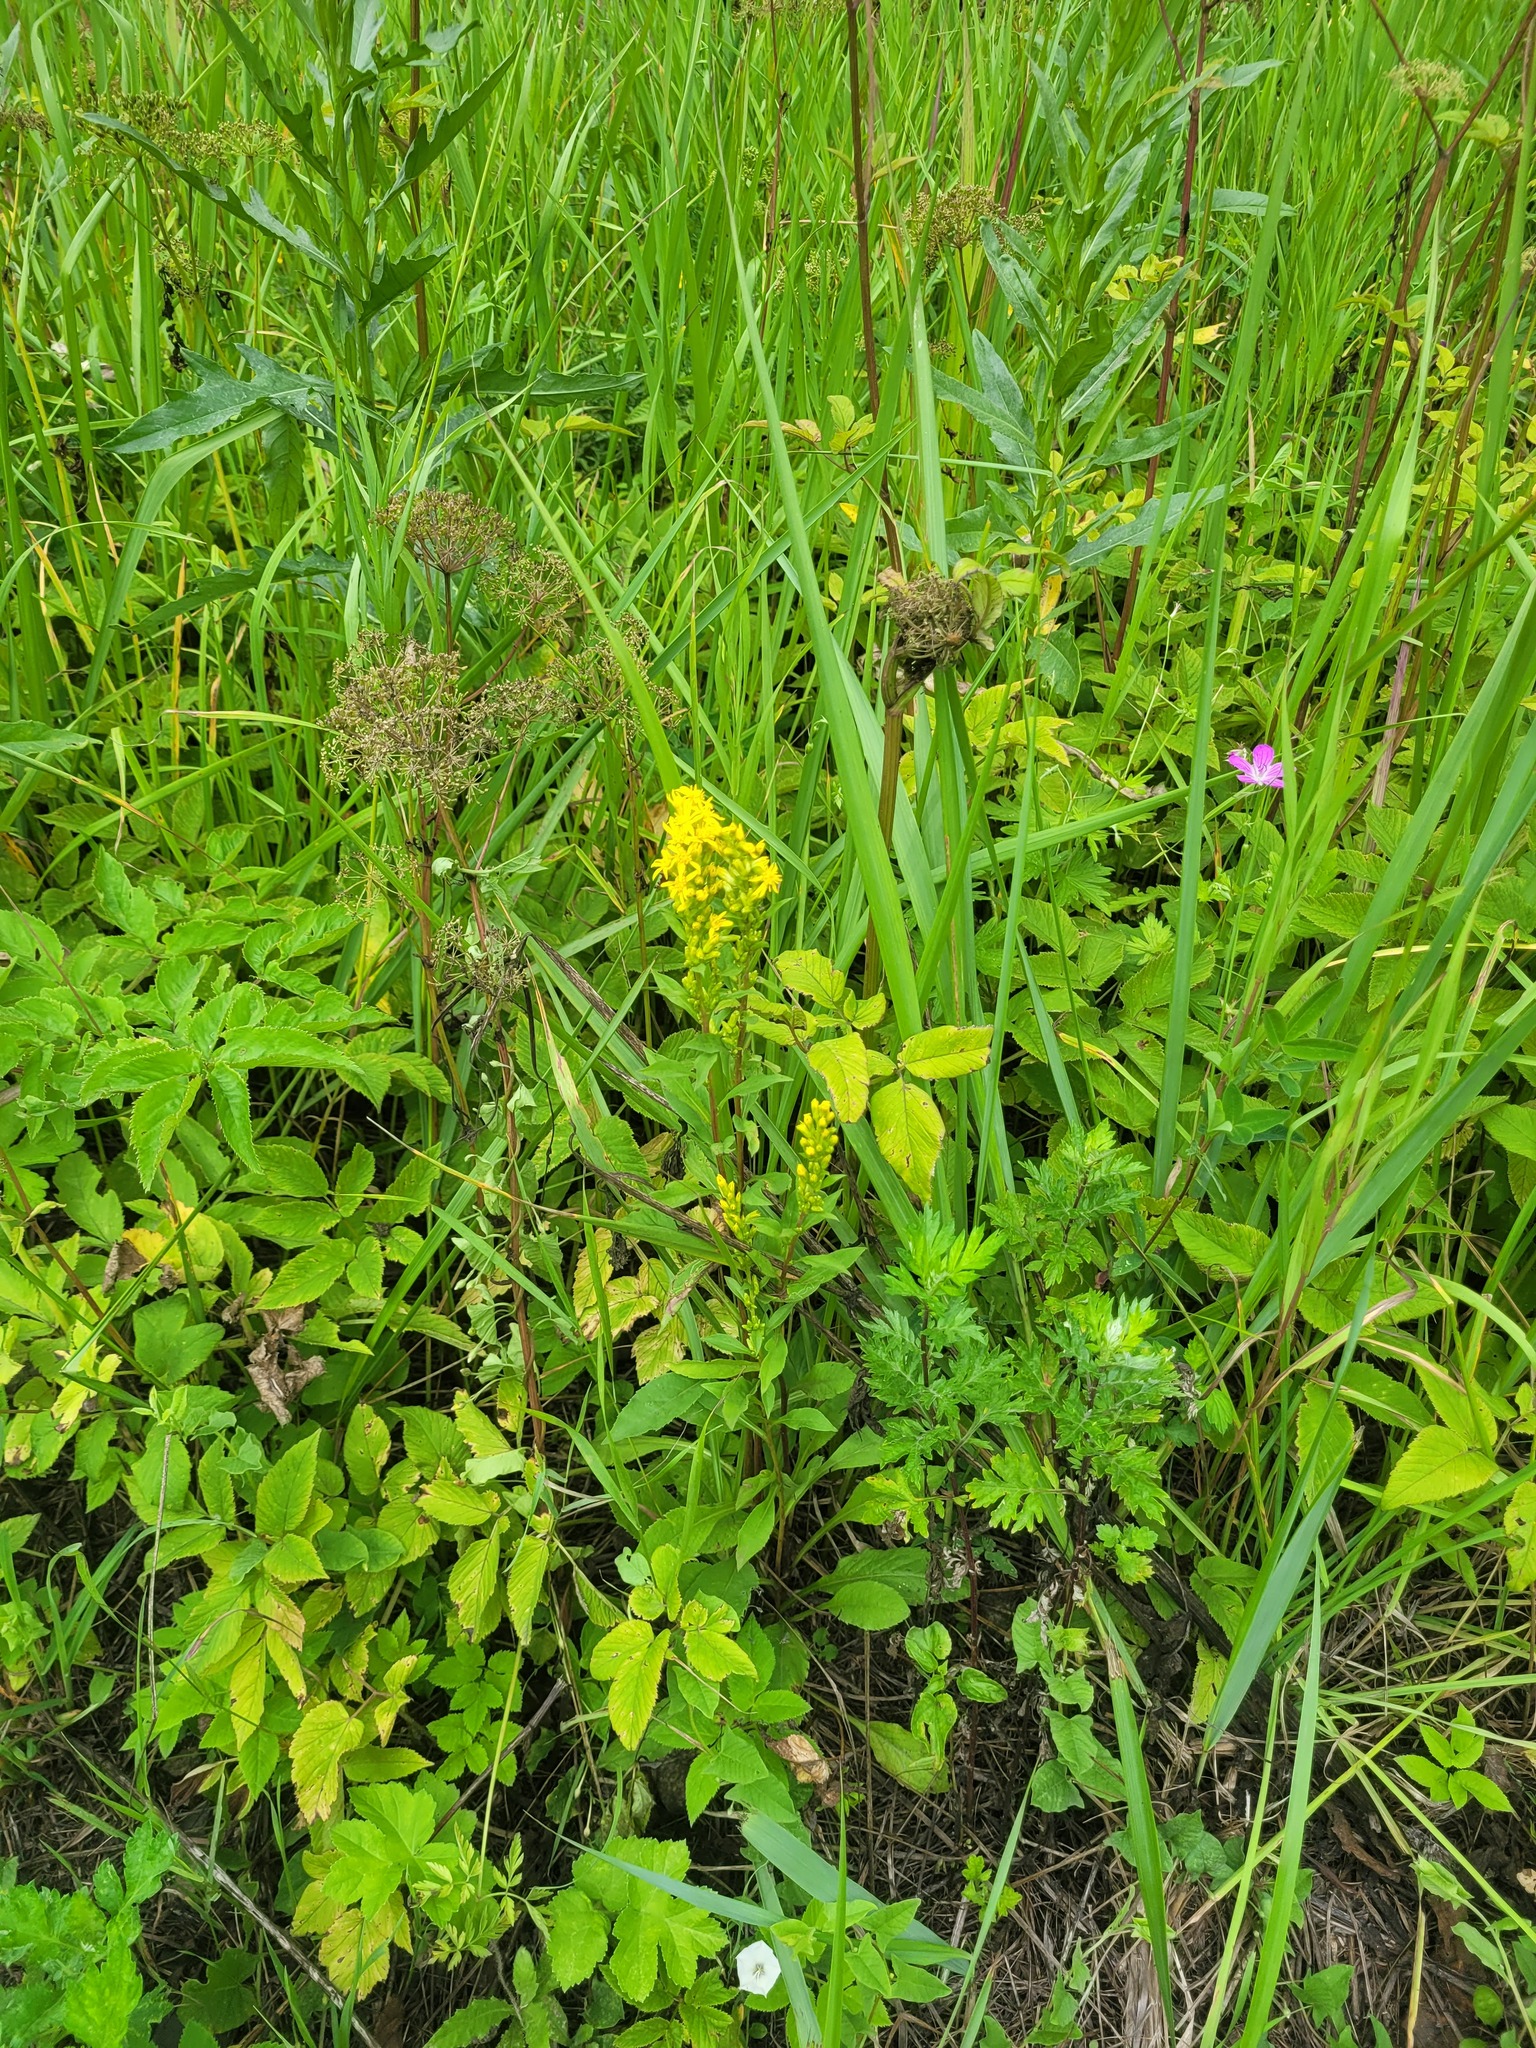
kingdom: Plantae
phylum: Tracheophyta
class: Magnoliopsida
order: Asterales
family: Asteraceae
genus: Solidago
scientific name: Solidago virgaurea
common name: Goldenrod
